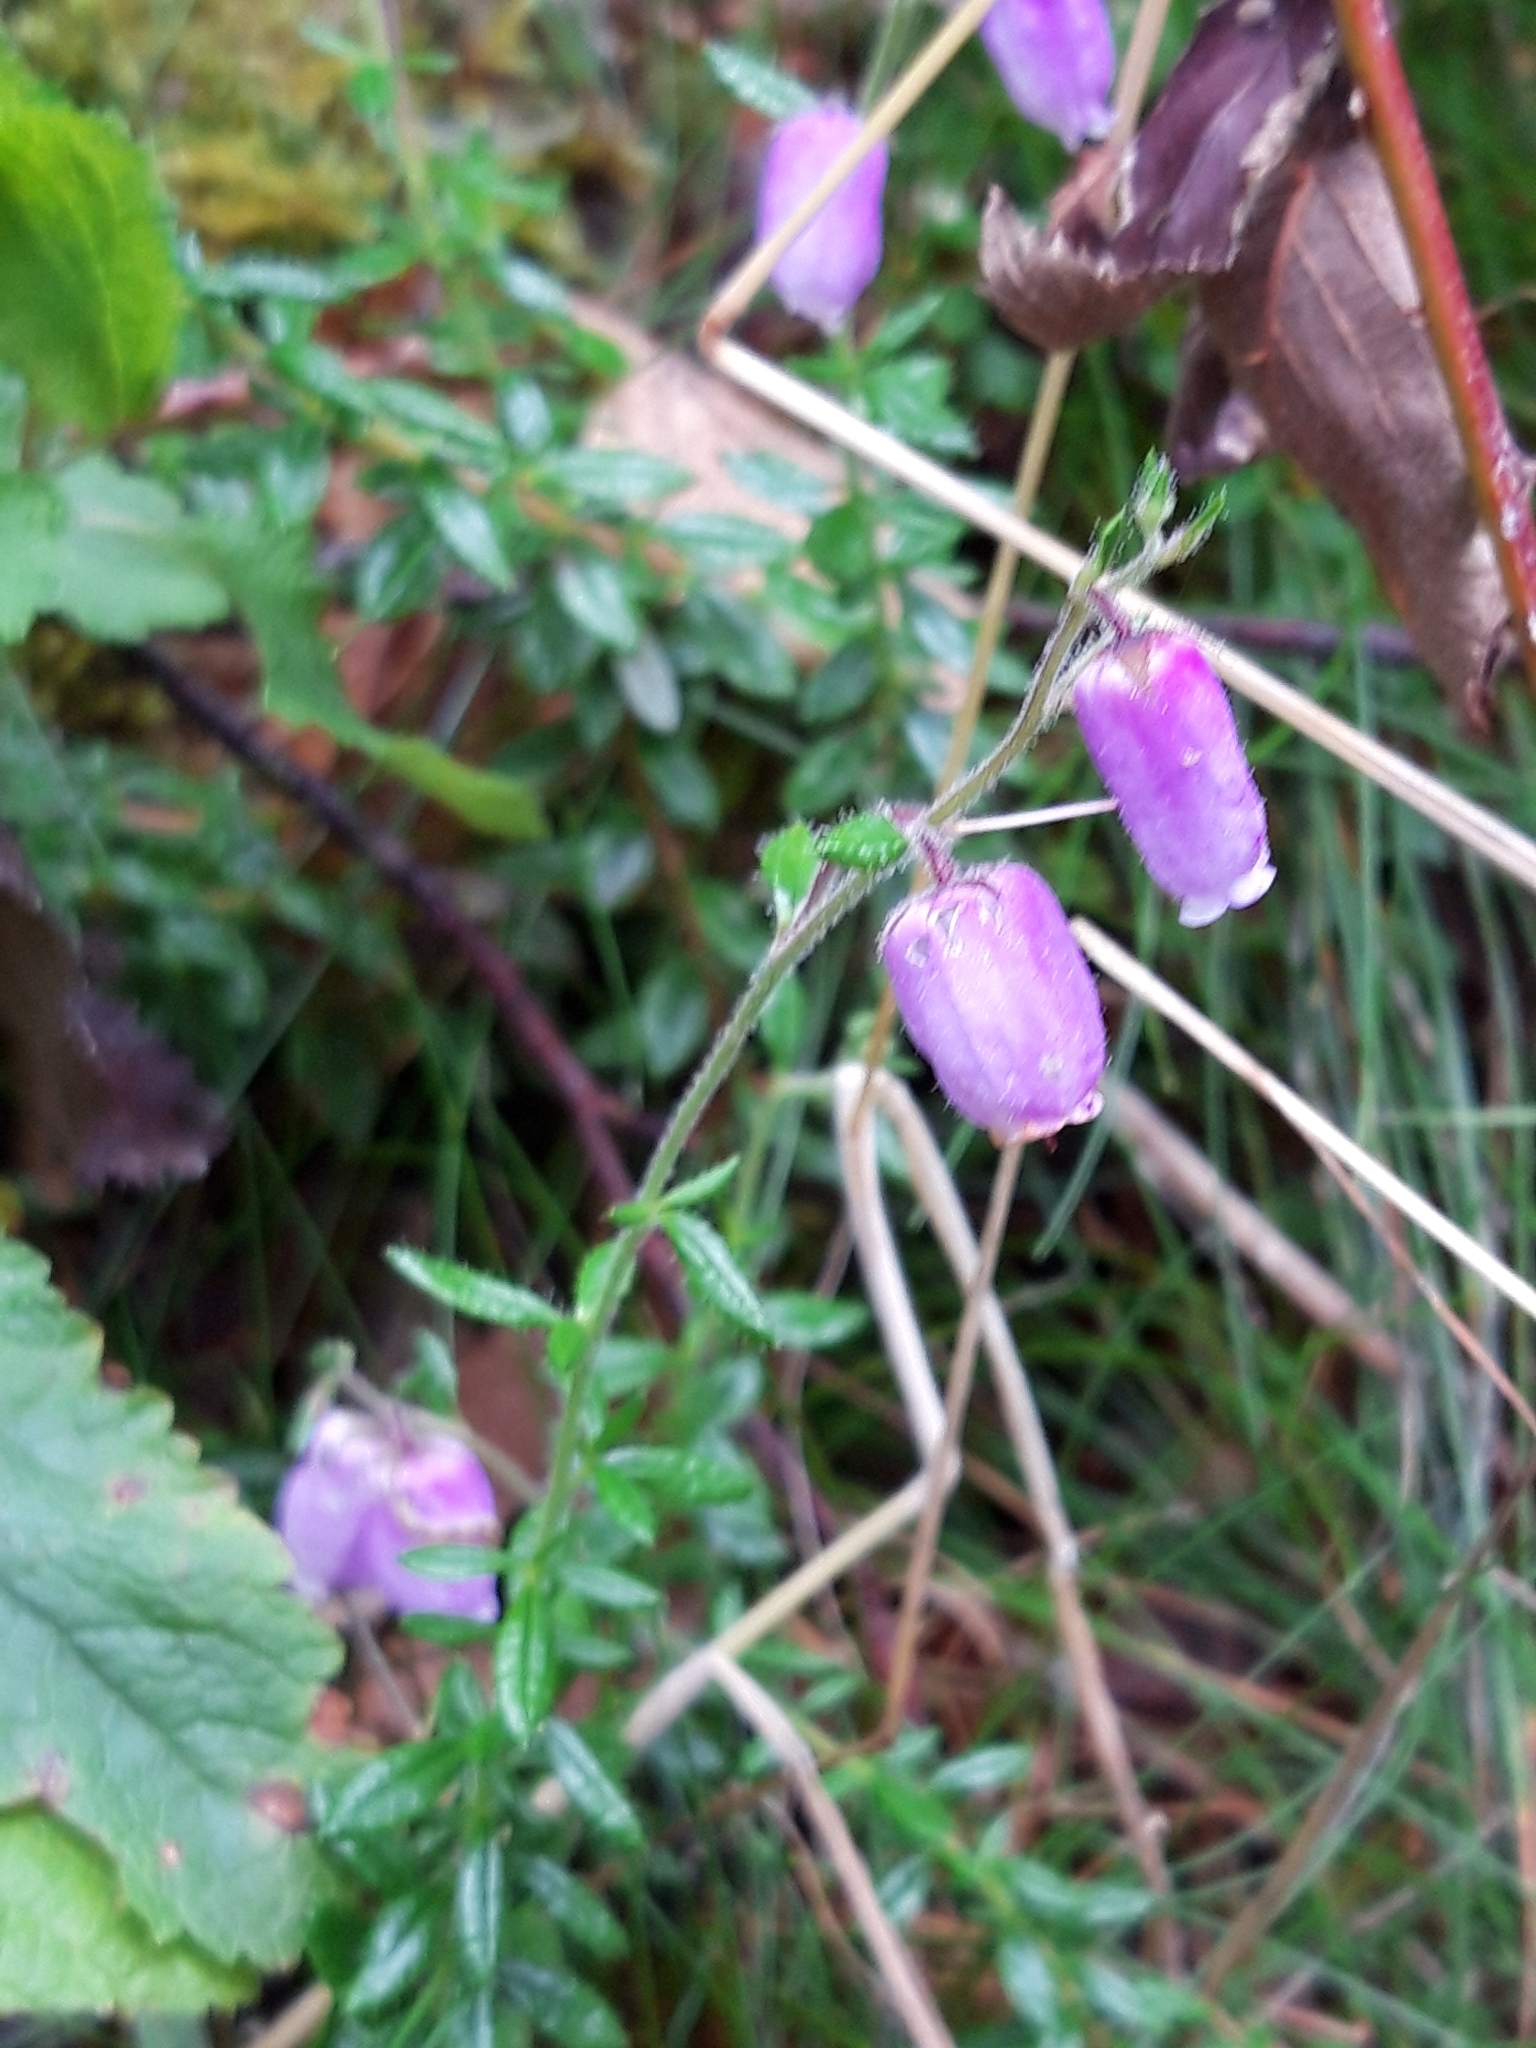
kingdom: Plantae
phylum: Tracheophyta
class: Magnoliopsida
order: Ericales
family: Ericaceae
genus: Daboecia
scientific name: Daboecia cantabrica
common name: St. dabeoc's-heath
